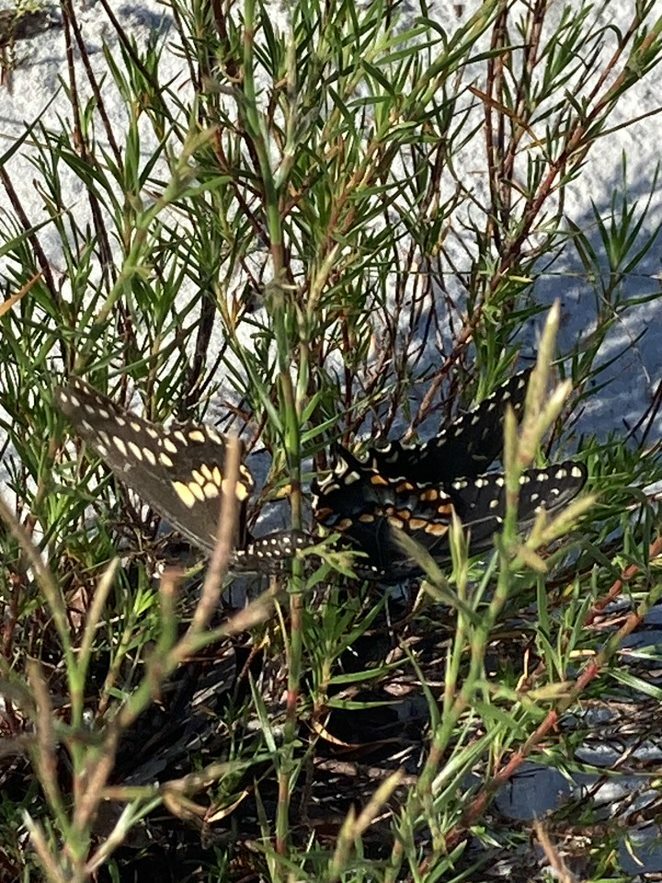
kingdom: Animalia
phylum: Arthropoda
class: Insecta
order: Lepidoptera
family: Papilionidae
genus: Papilio
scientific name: Papilio polyxenes
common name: Black swallowtail
